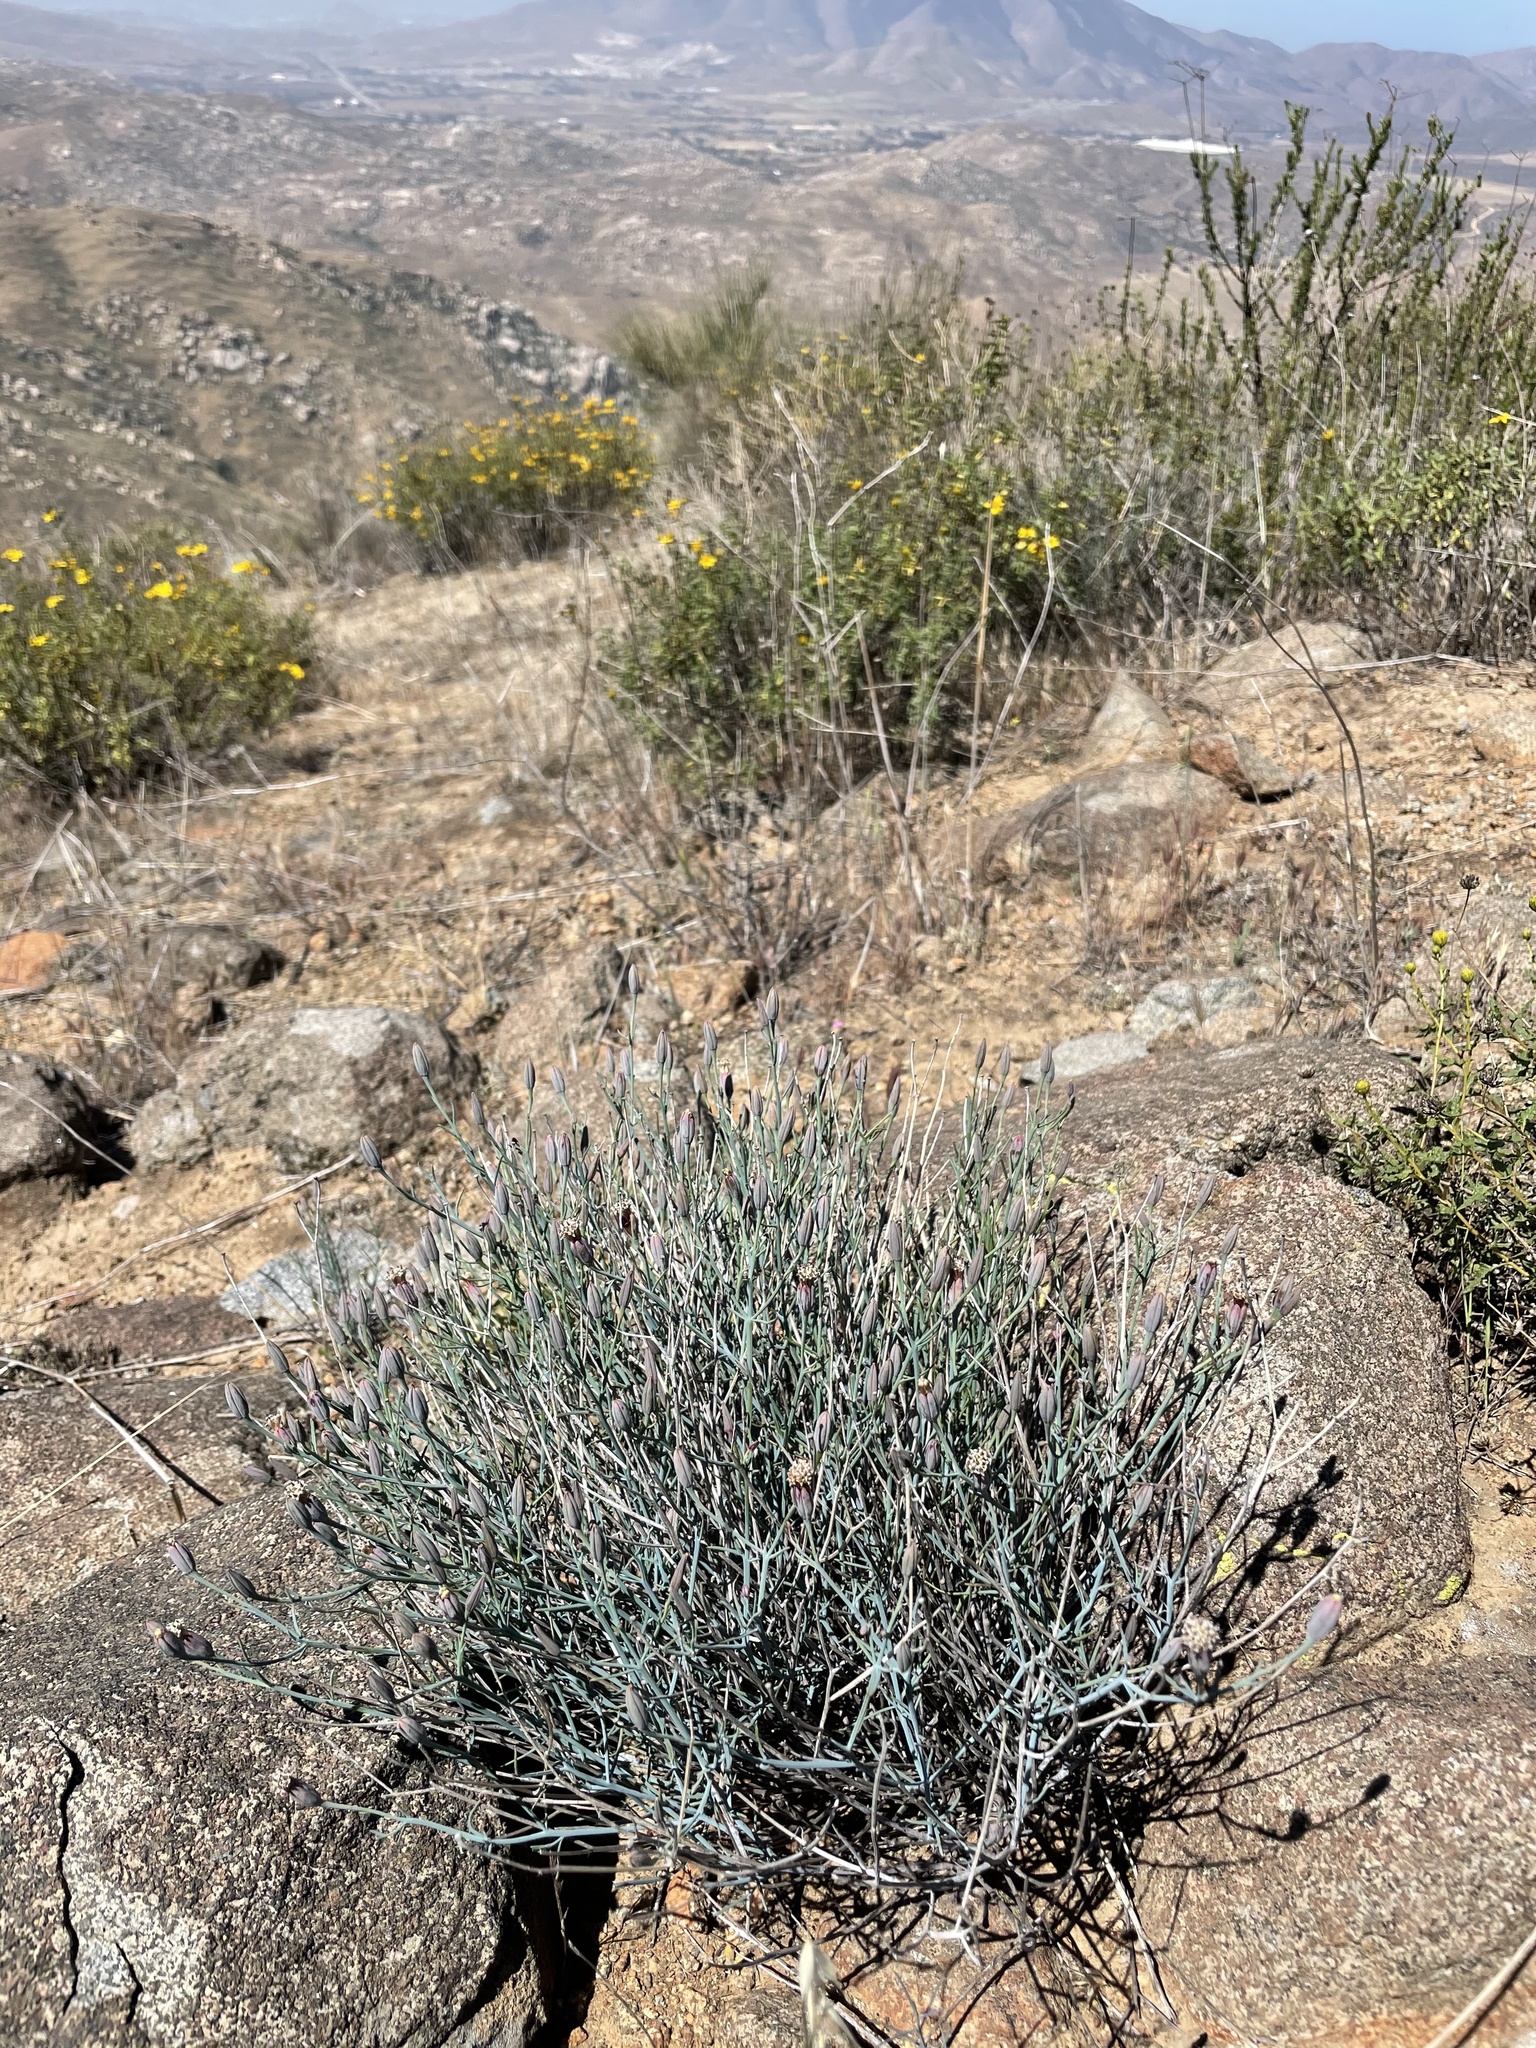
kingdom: Plantae
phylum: Tracheophyta
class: Magnoliopsida
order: Asterales
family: Asteraceae
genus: Porophyllum
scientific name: Porophyllum gracile
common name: Odora
